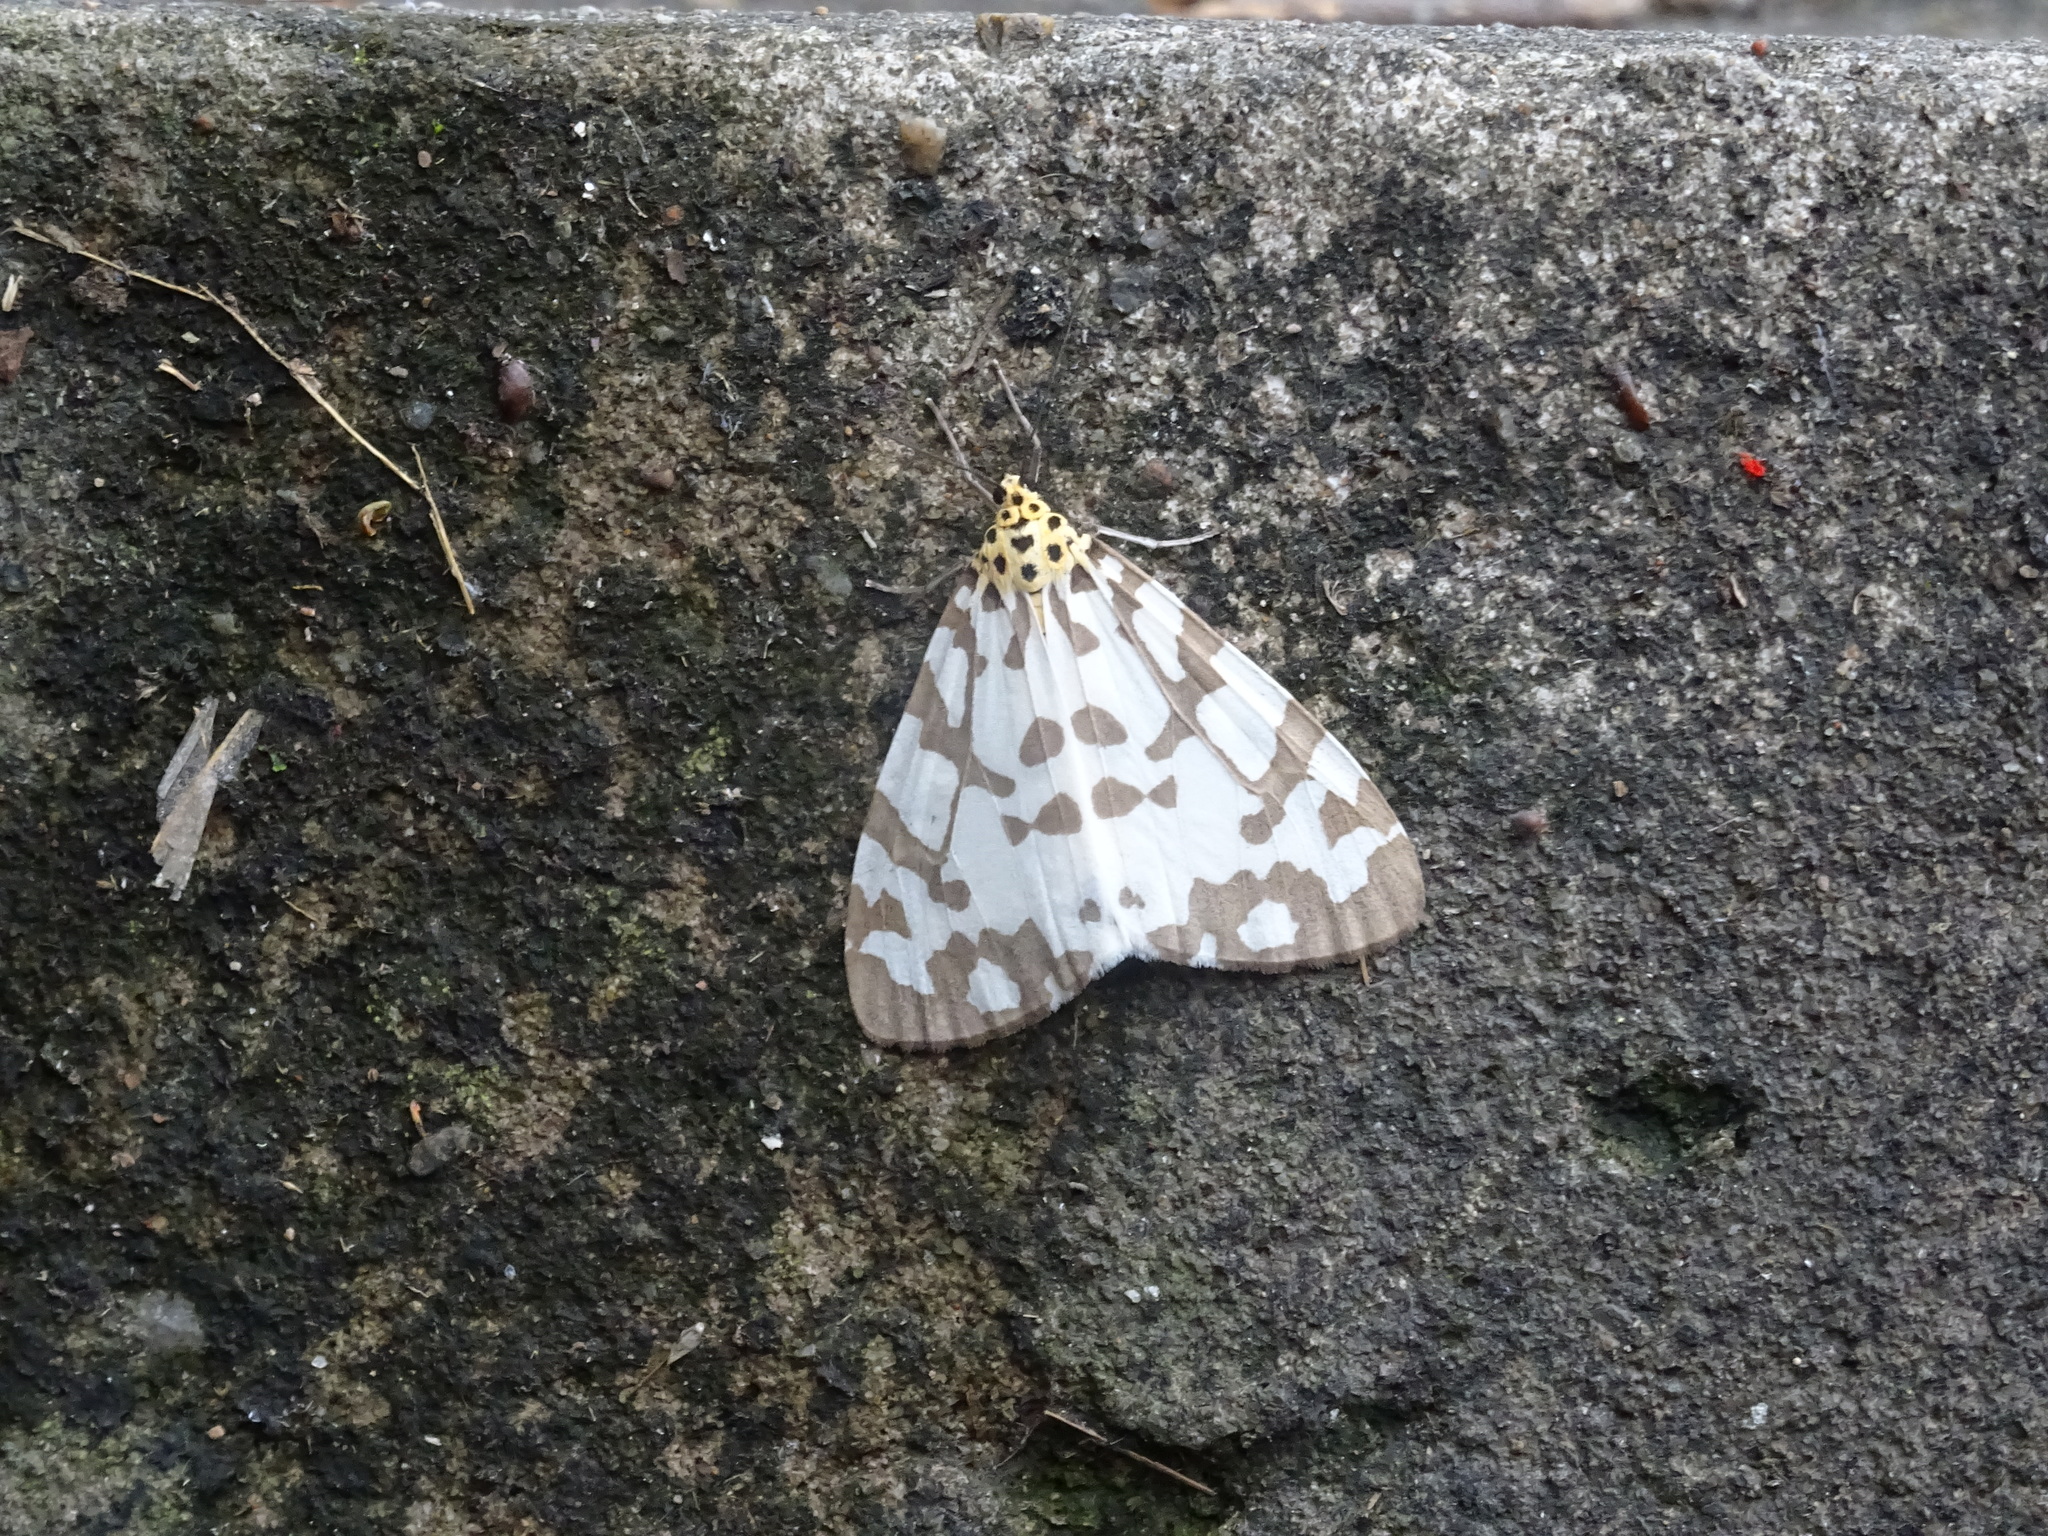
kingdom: Animalia
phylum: Arthropoda
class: Insecta
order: Lepidoptera
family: Erebidae
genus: Utetheisa
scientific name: Utetheisa
